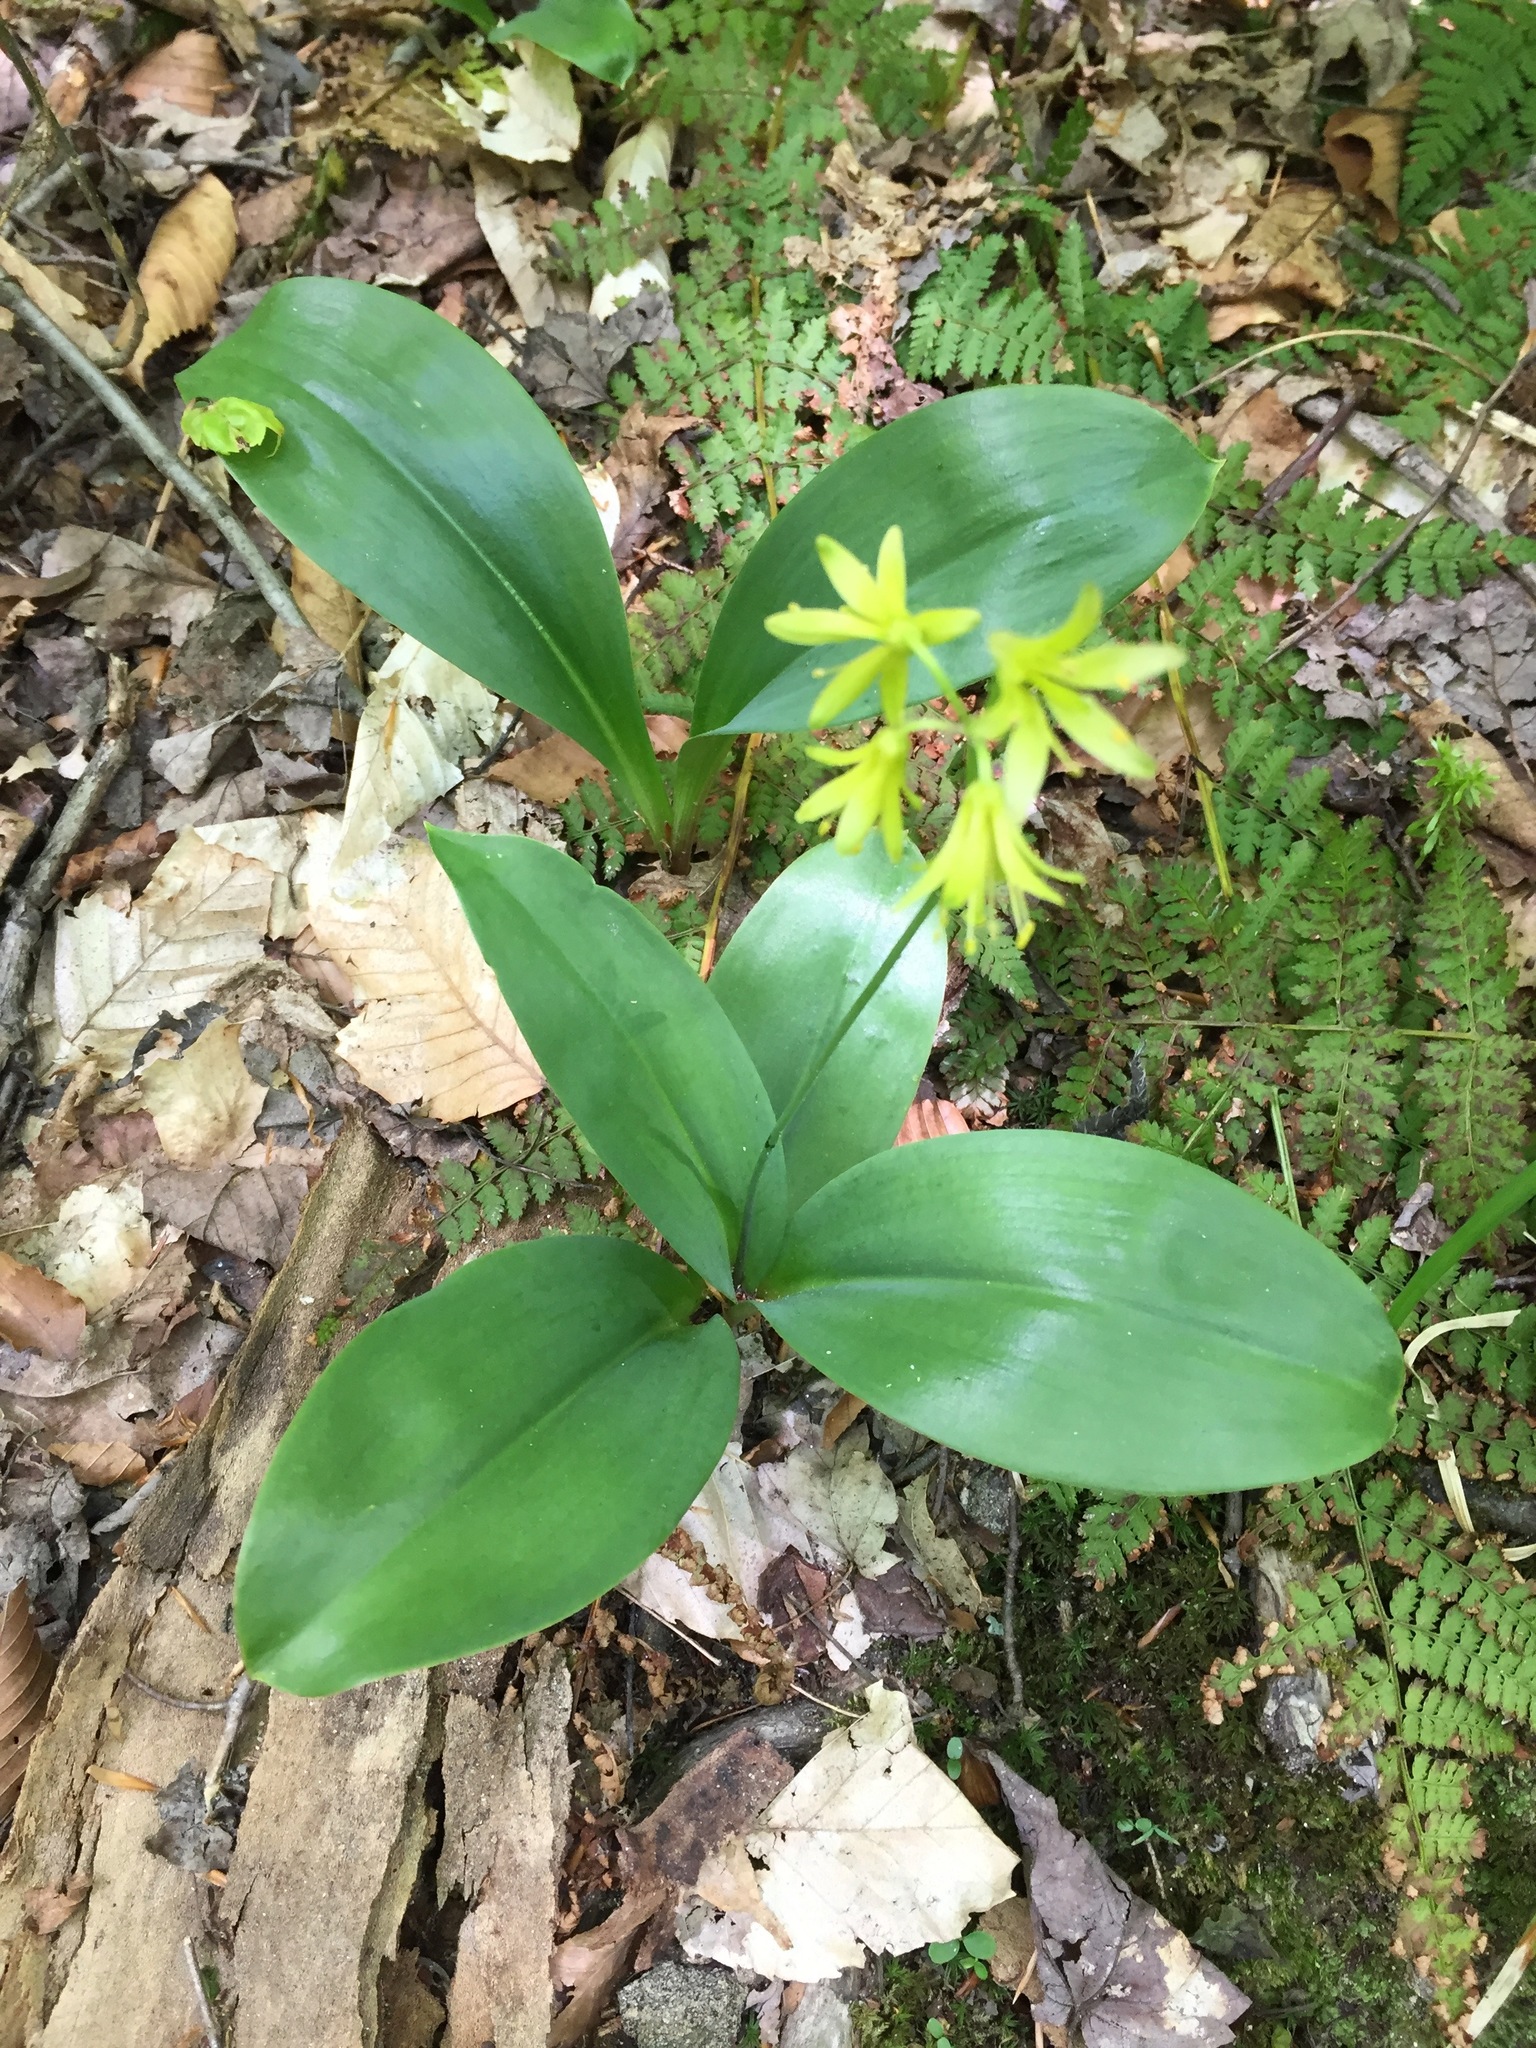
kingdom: Plantae
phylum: Tracheophyta
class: Liliopsida
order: Liliales
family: Liliaceae
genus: Clintonia
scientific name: Clintonia borealis
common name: Yellow clintonia
